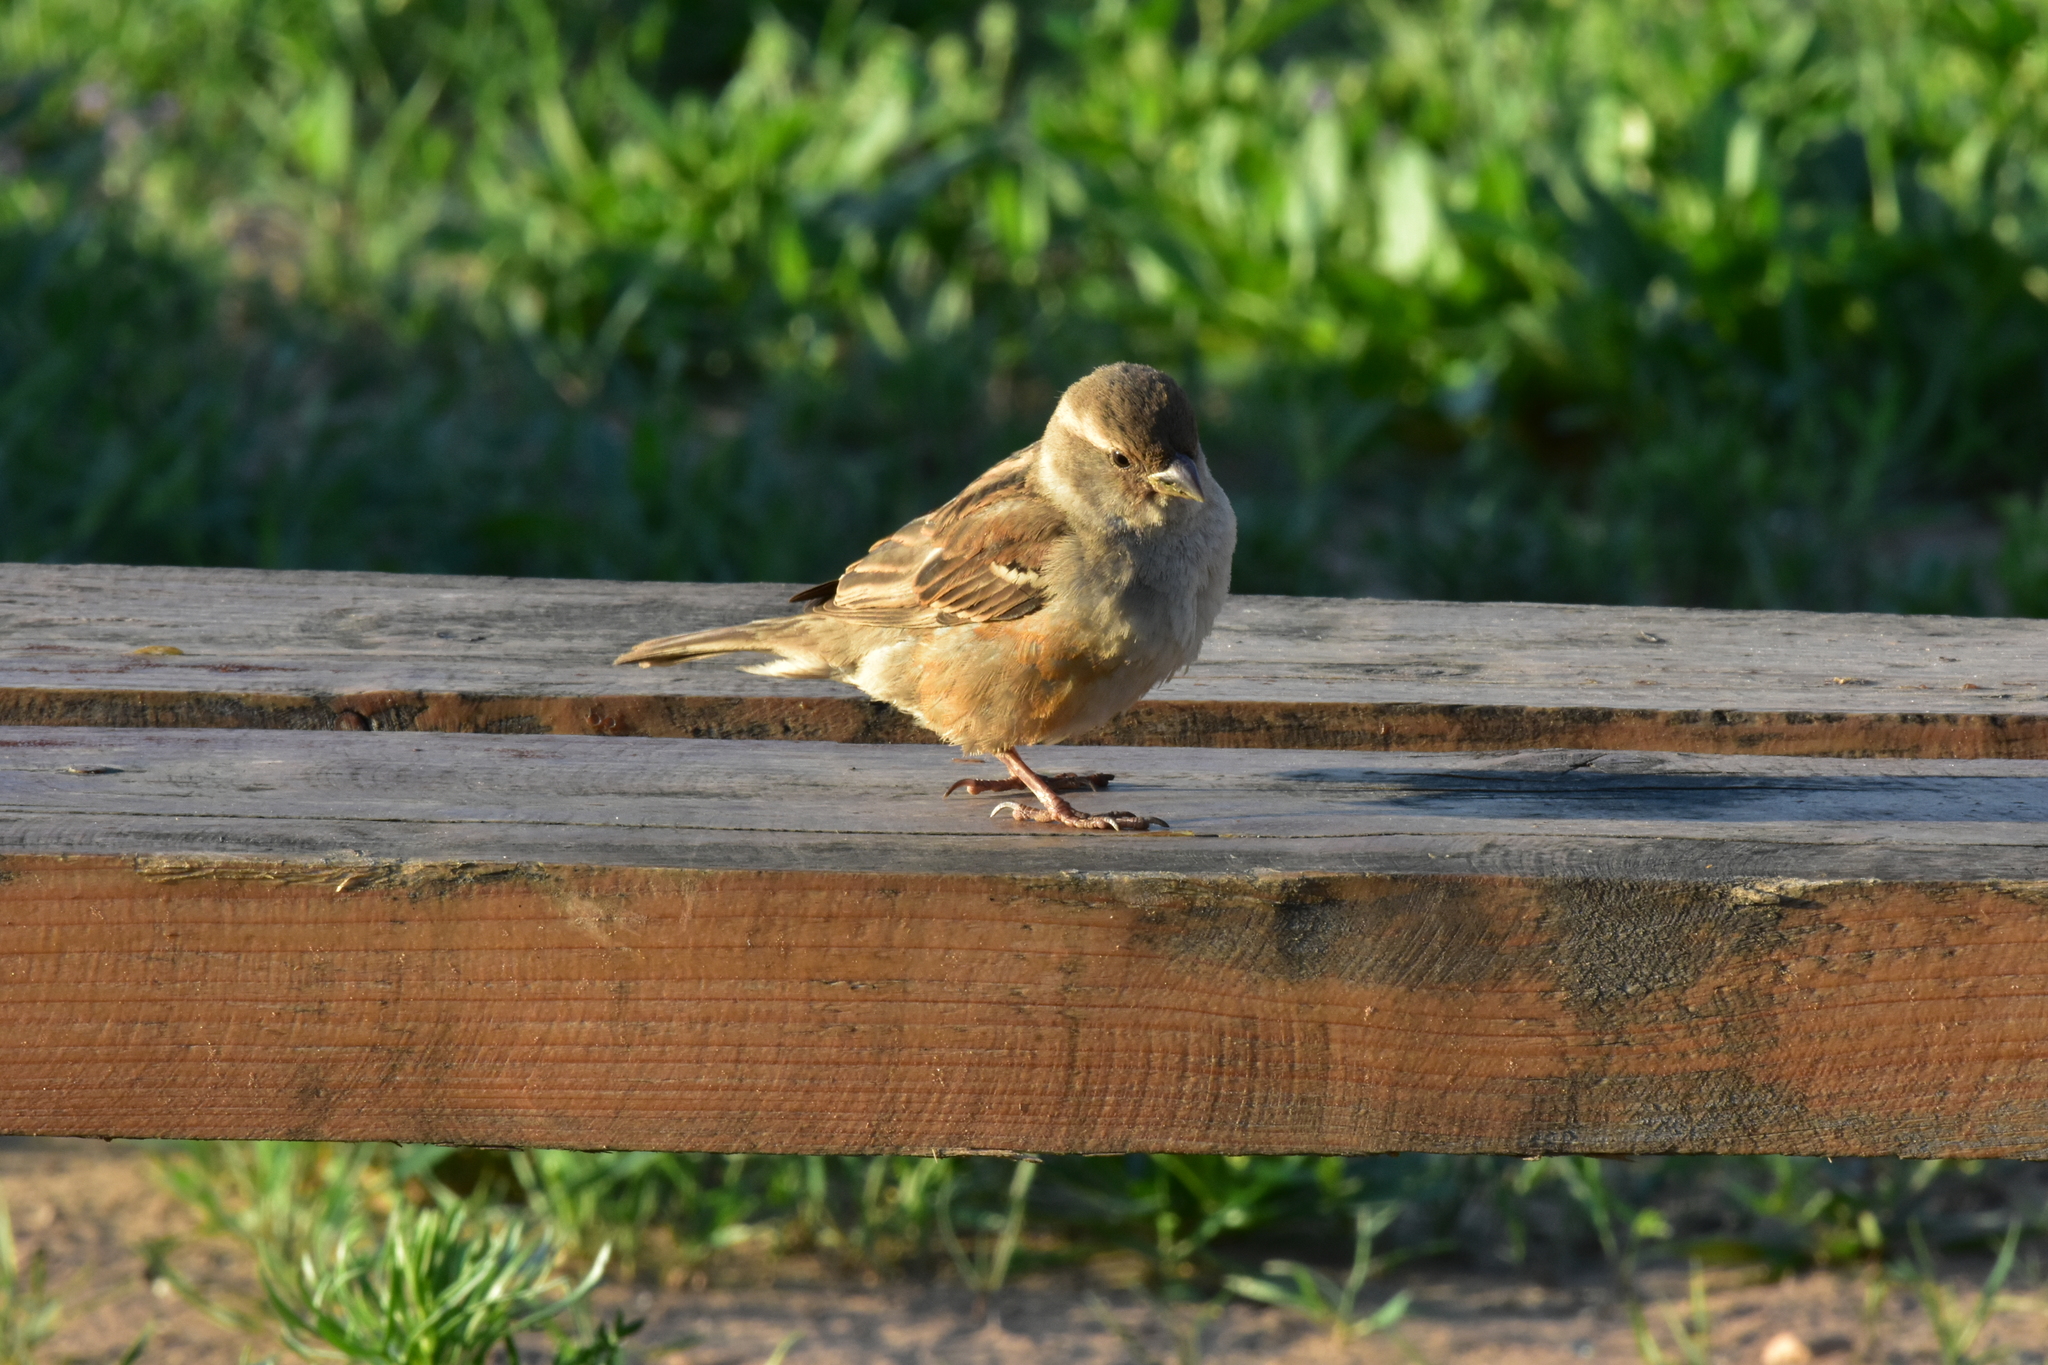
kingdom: Animalia
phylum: Chordata
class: Aves
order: Passeriformes
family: Passeridae
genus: Passer
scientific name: Passer domesticus
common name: House sparrow
